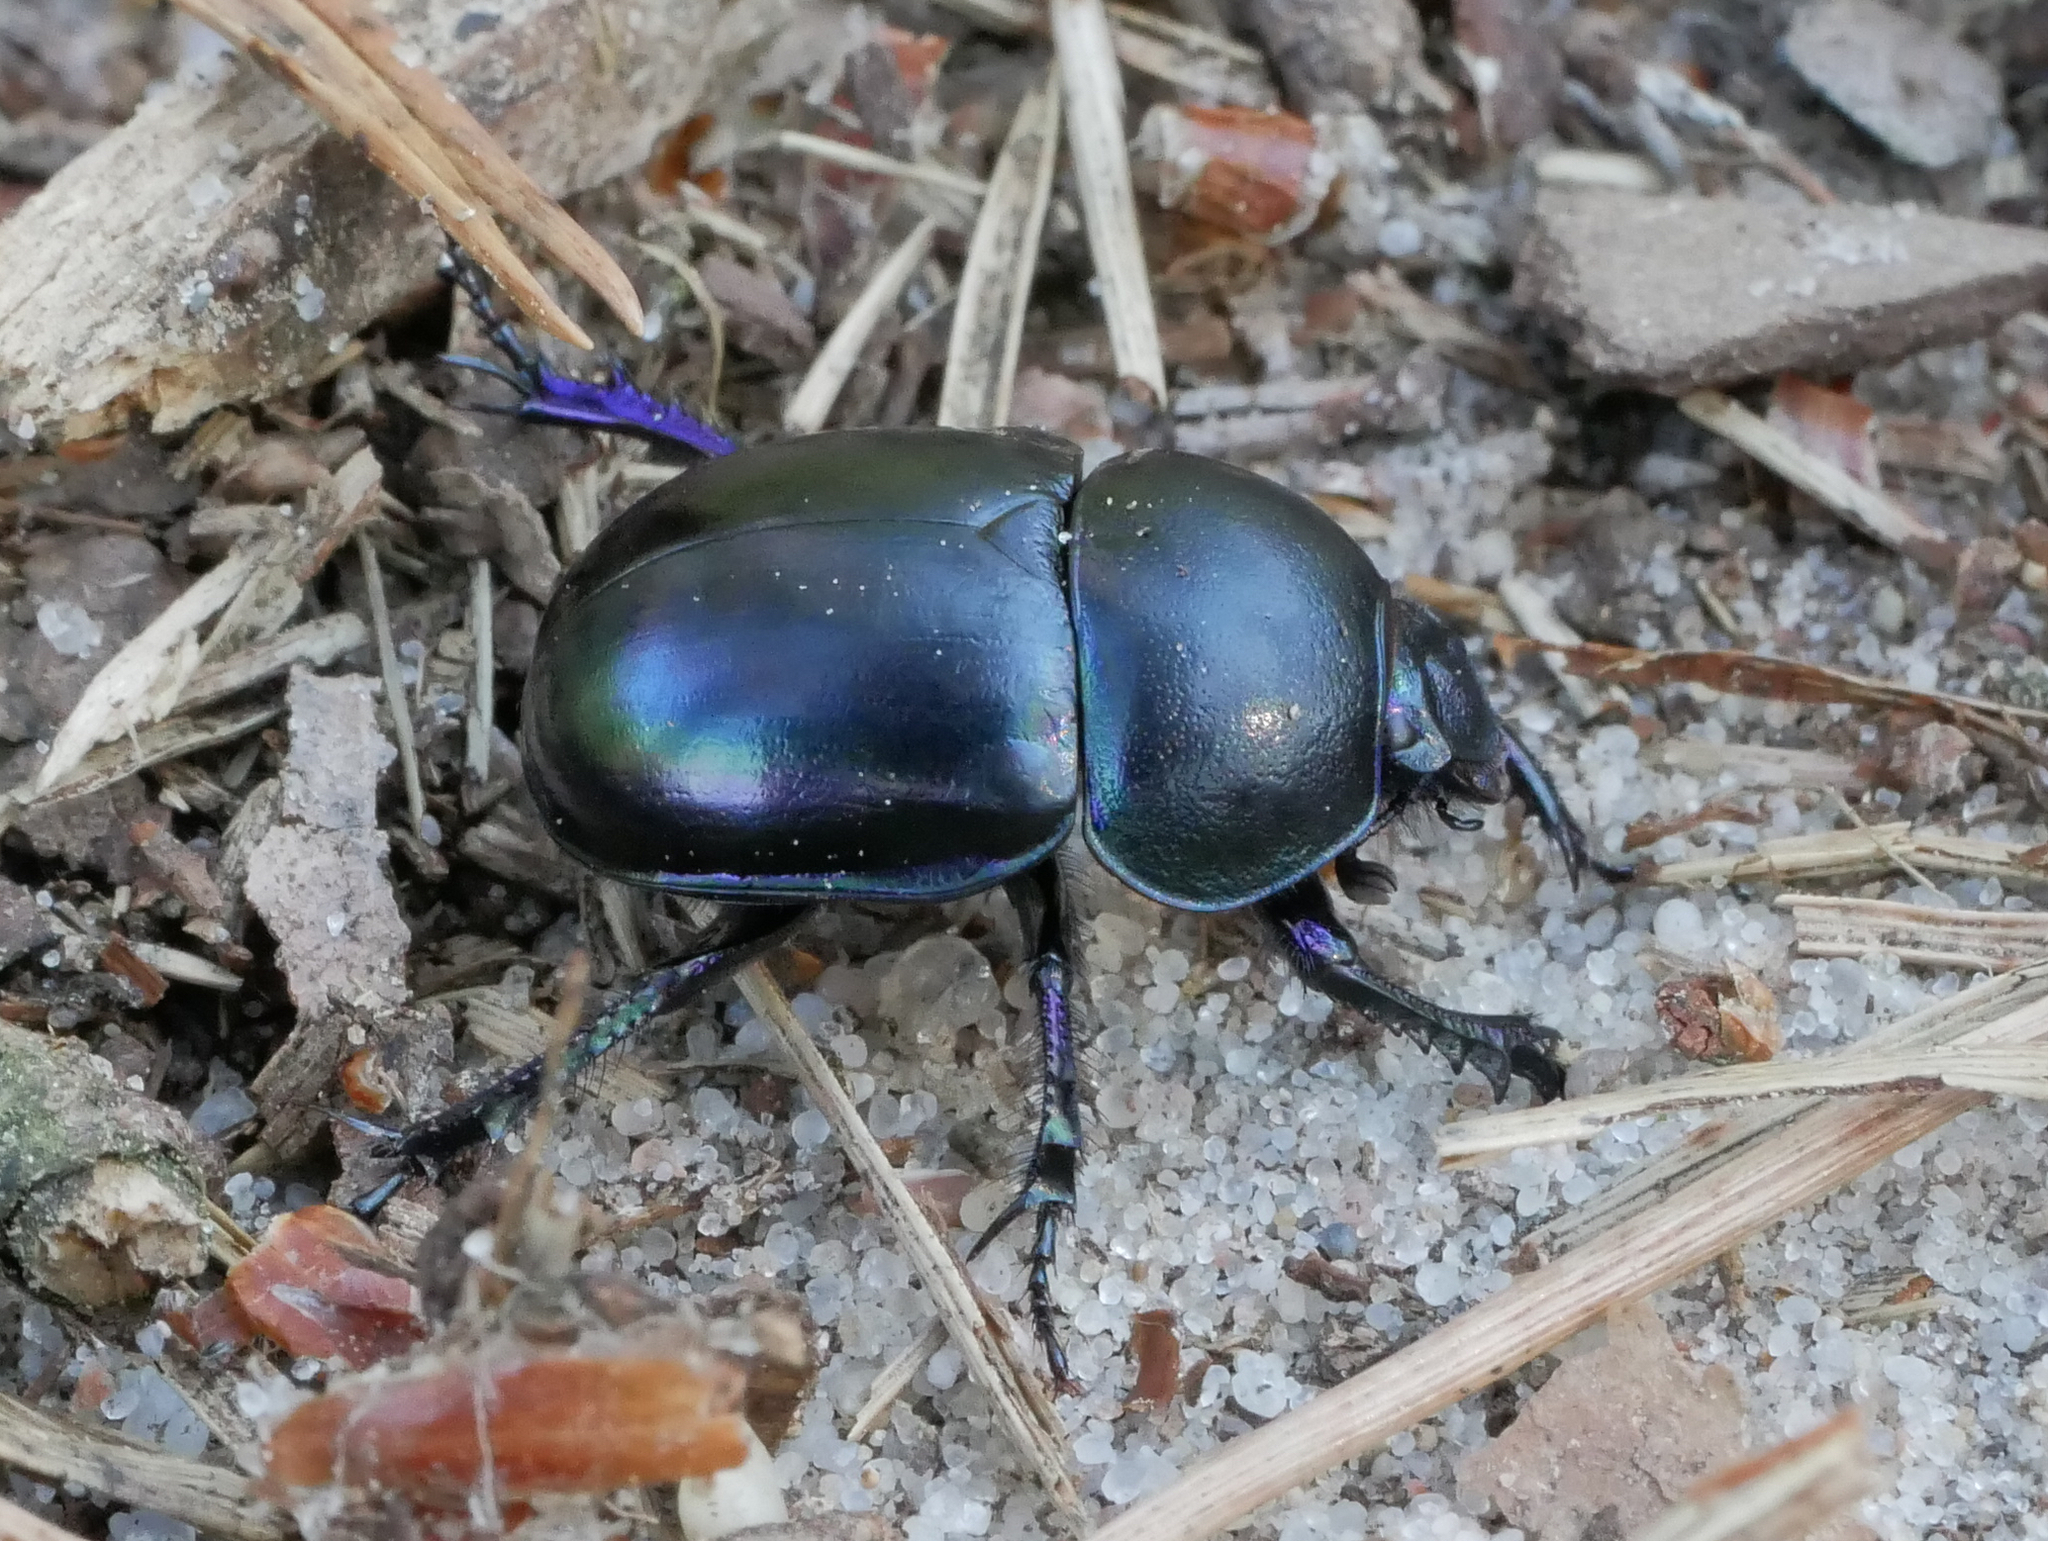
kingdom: Animalia
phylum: Arthropoda
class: Insecta
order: Coleoptera
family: Geotrupidae
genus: Trypocopris
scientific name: Trypocopris vernalis
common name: Spring dumbledor
